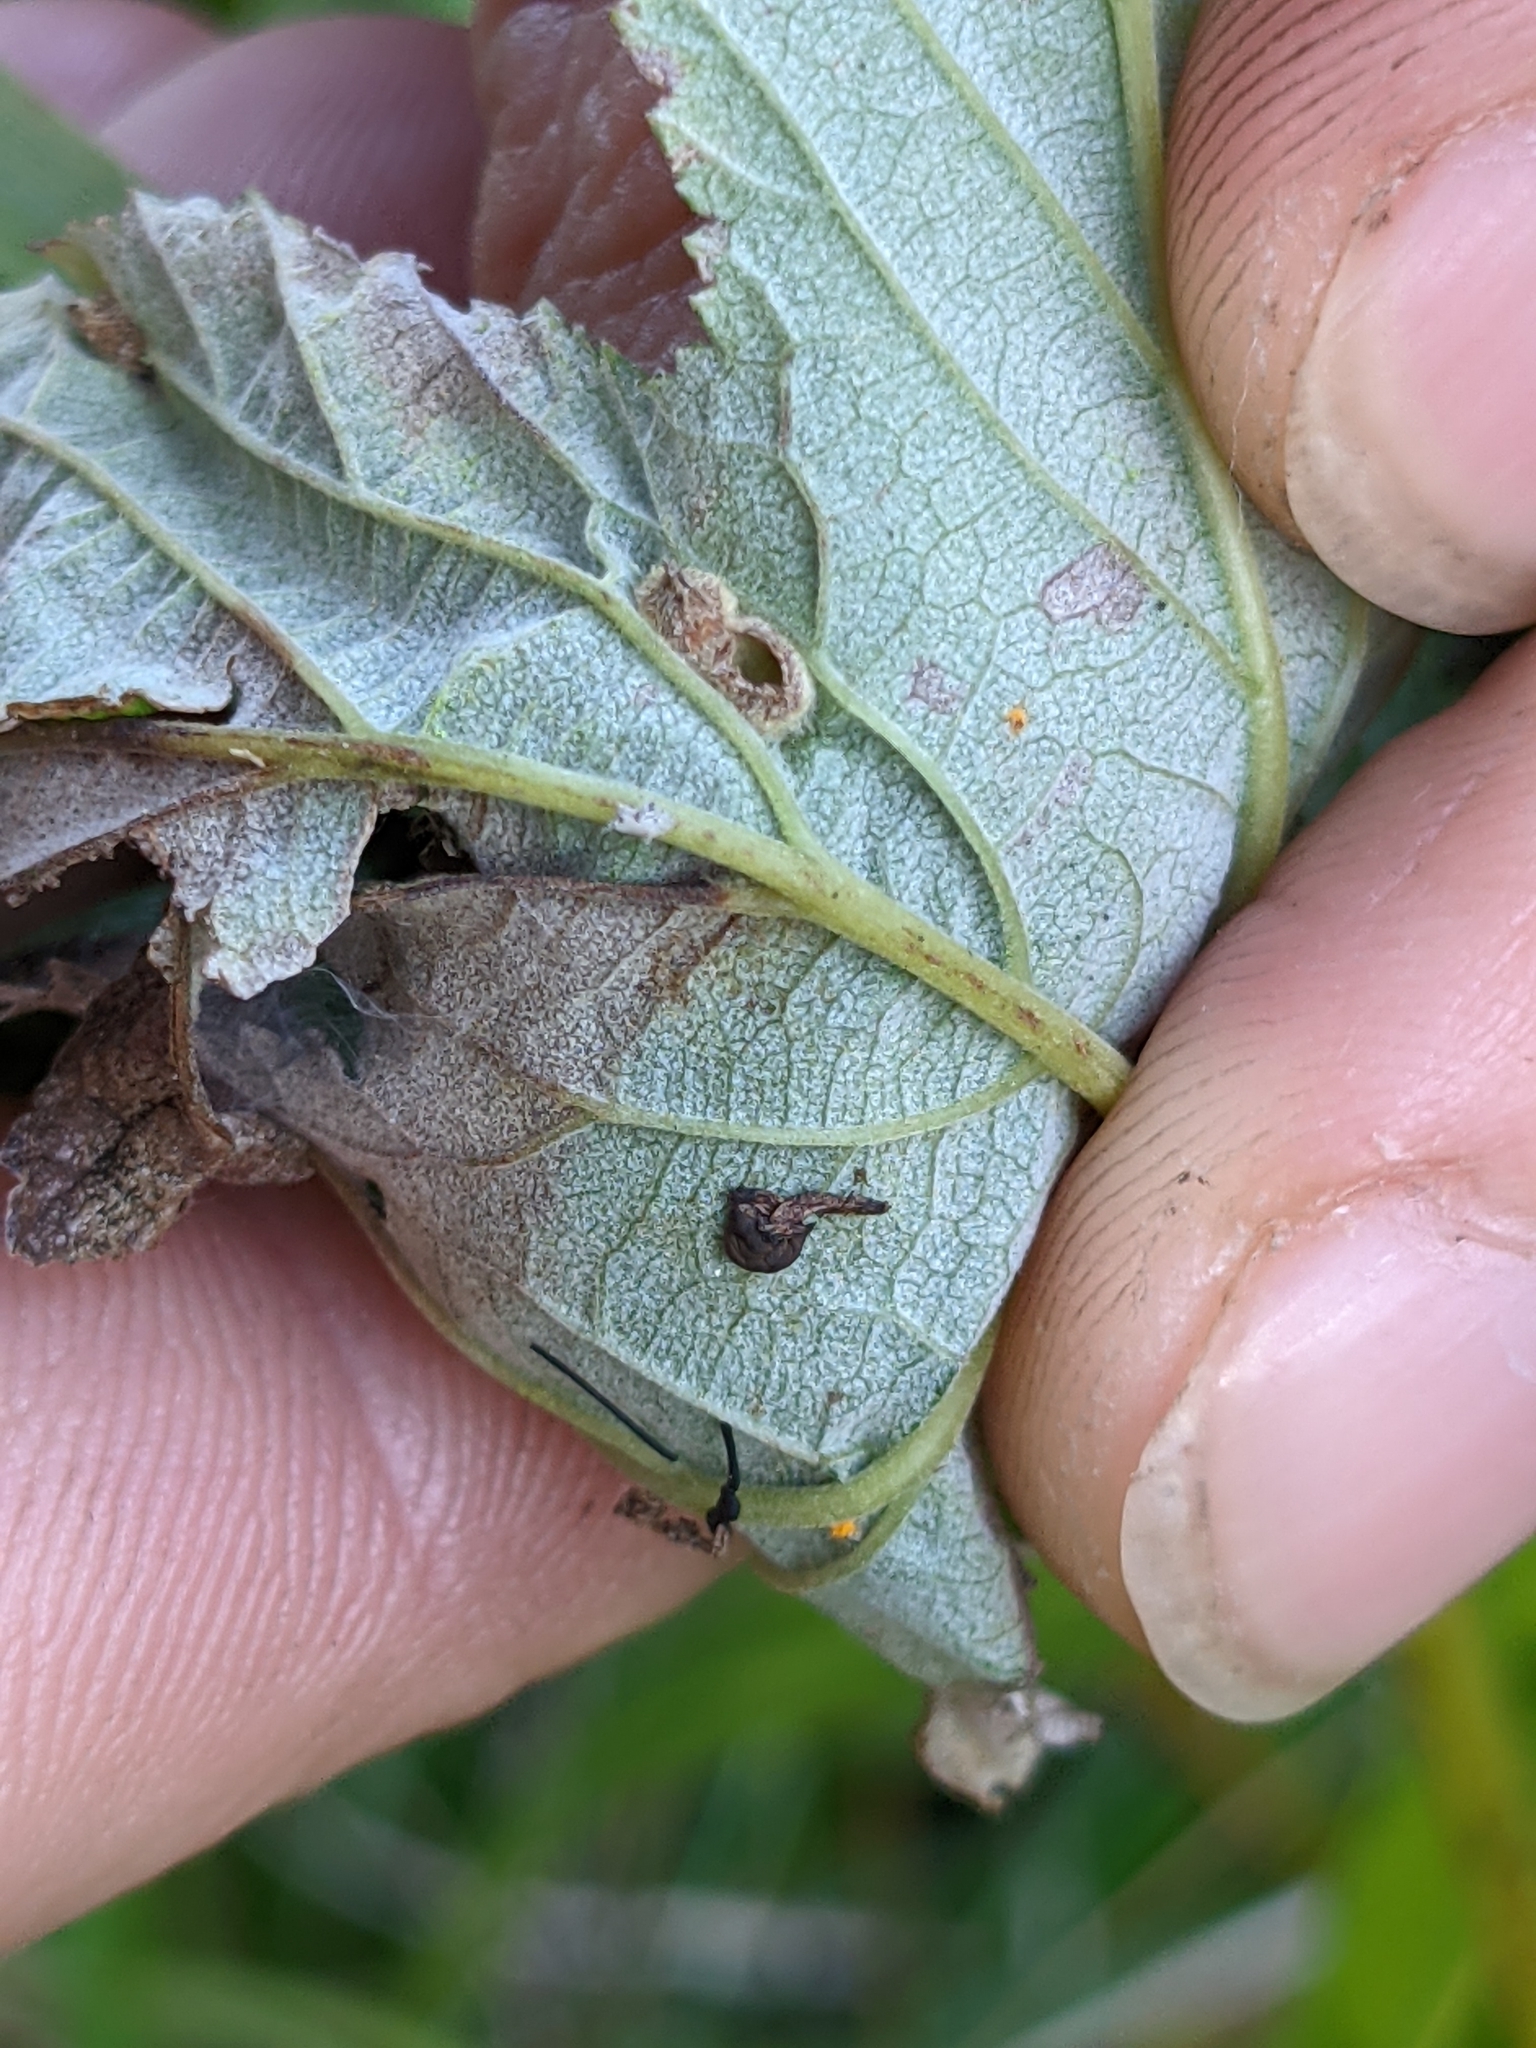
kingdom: Animalia
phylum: Arthropoda
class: Insecta
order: Diptera
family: Cecidomyiidae
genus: Dasineura
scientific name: Dasineura ulmaria
